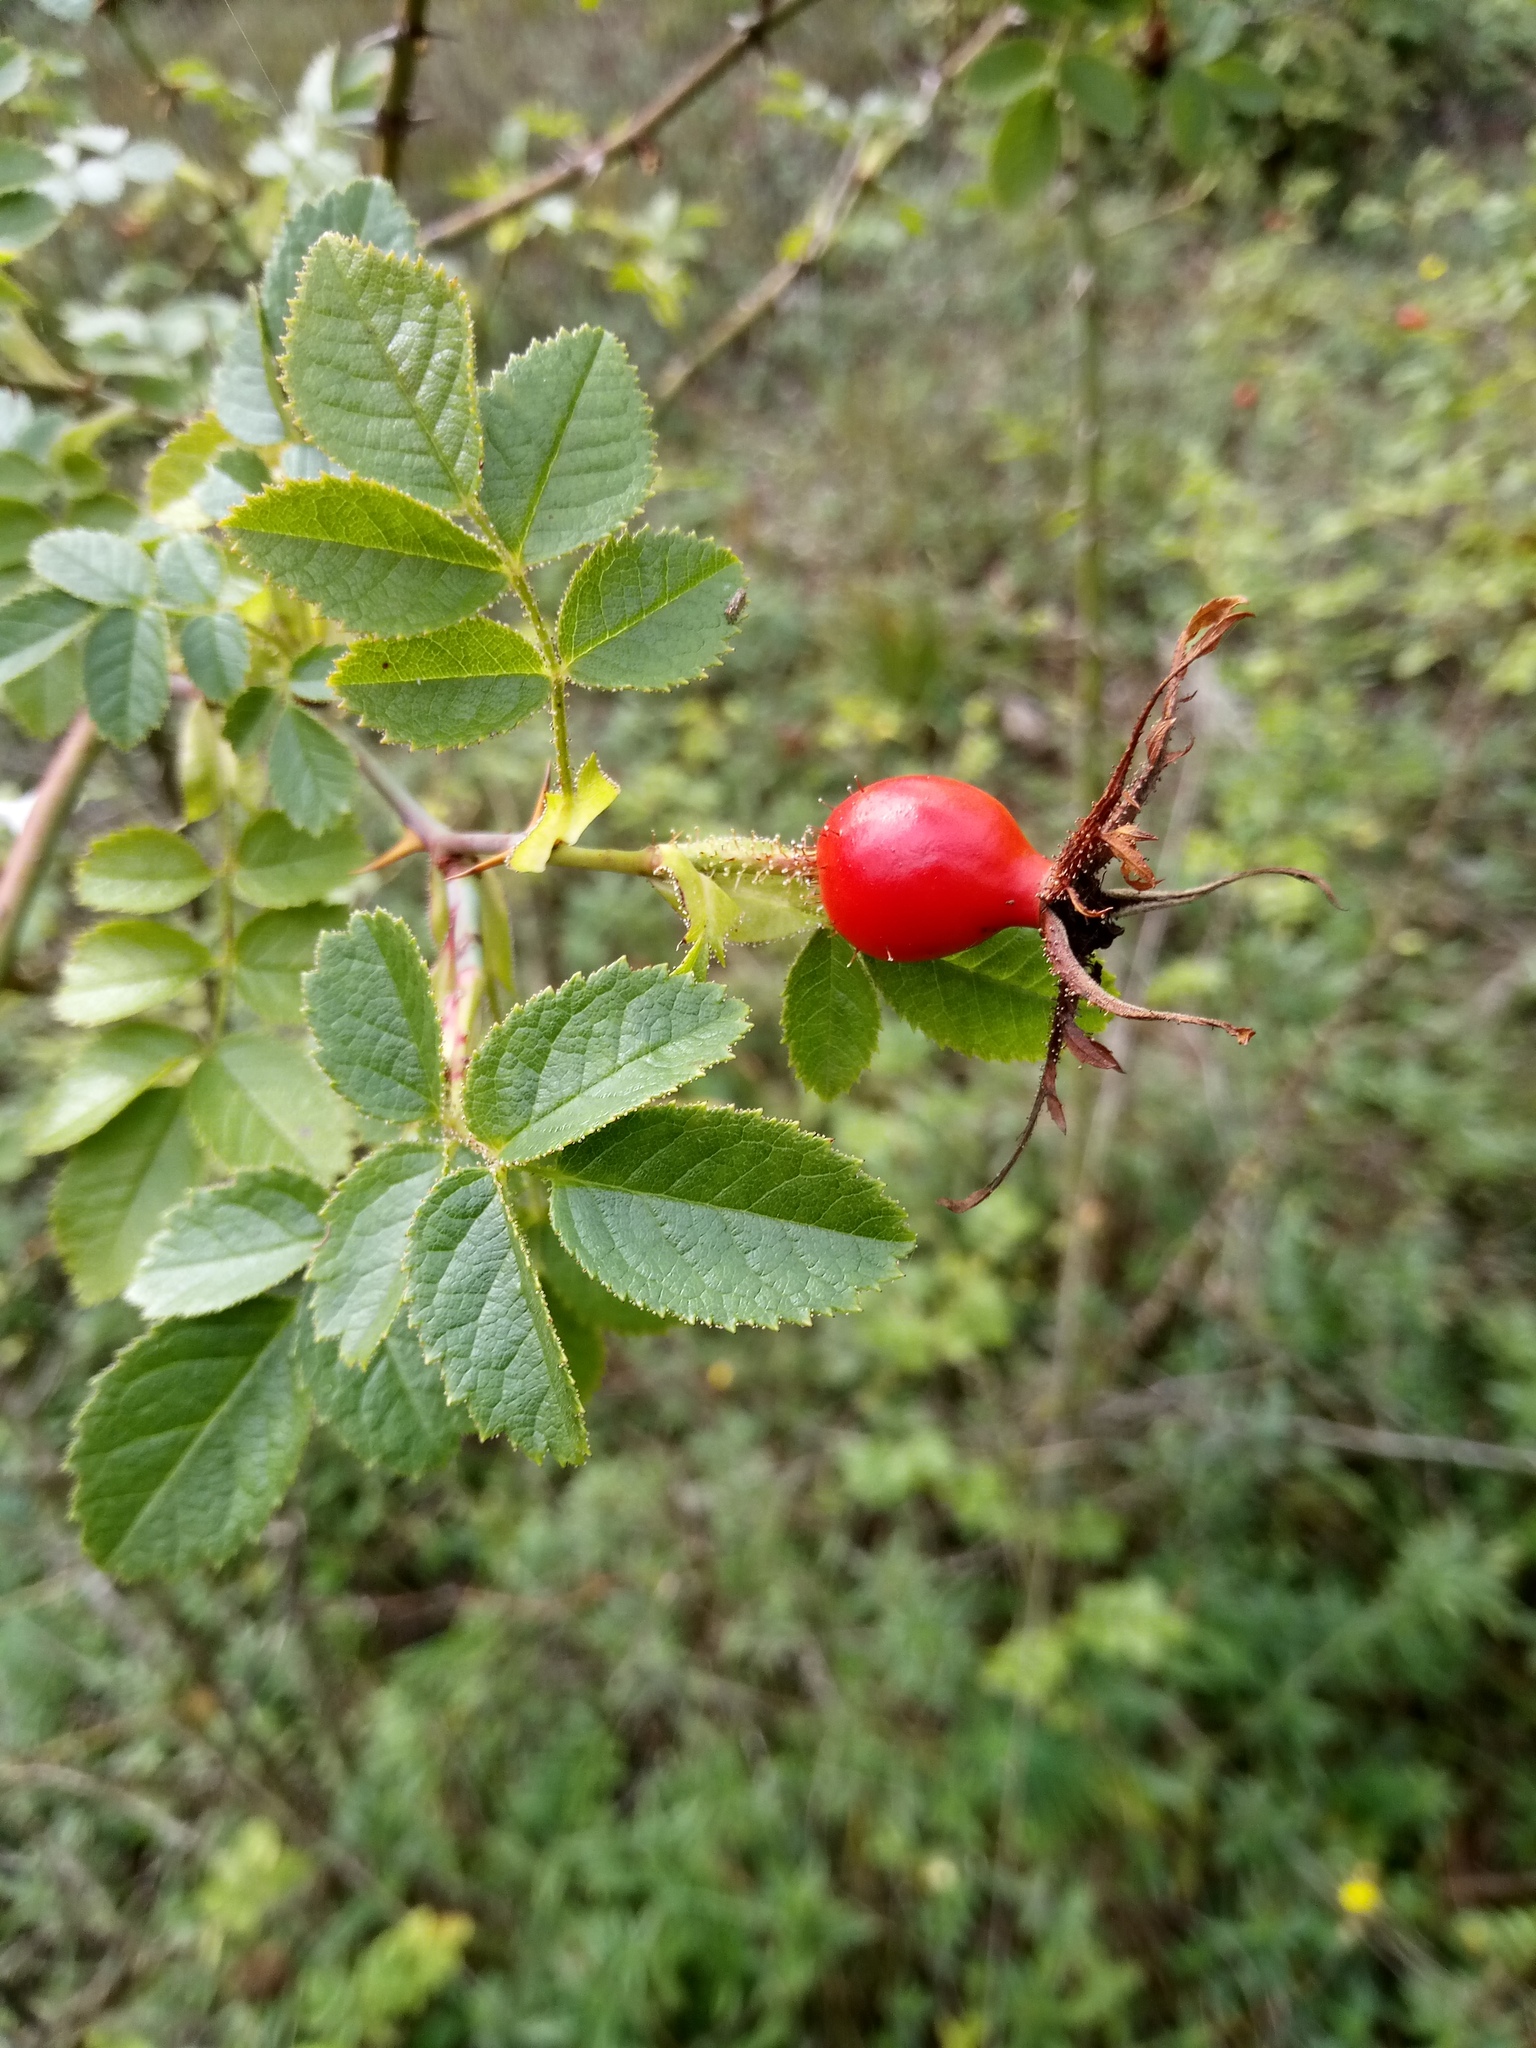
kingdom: Plantae
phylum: Tracheophyta
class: Magnoliopsida
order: Rosales
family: Rosaceae
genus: Rosa
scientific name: Rosa rubiginosa
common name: Sweet-briar
